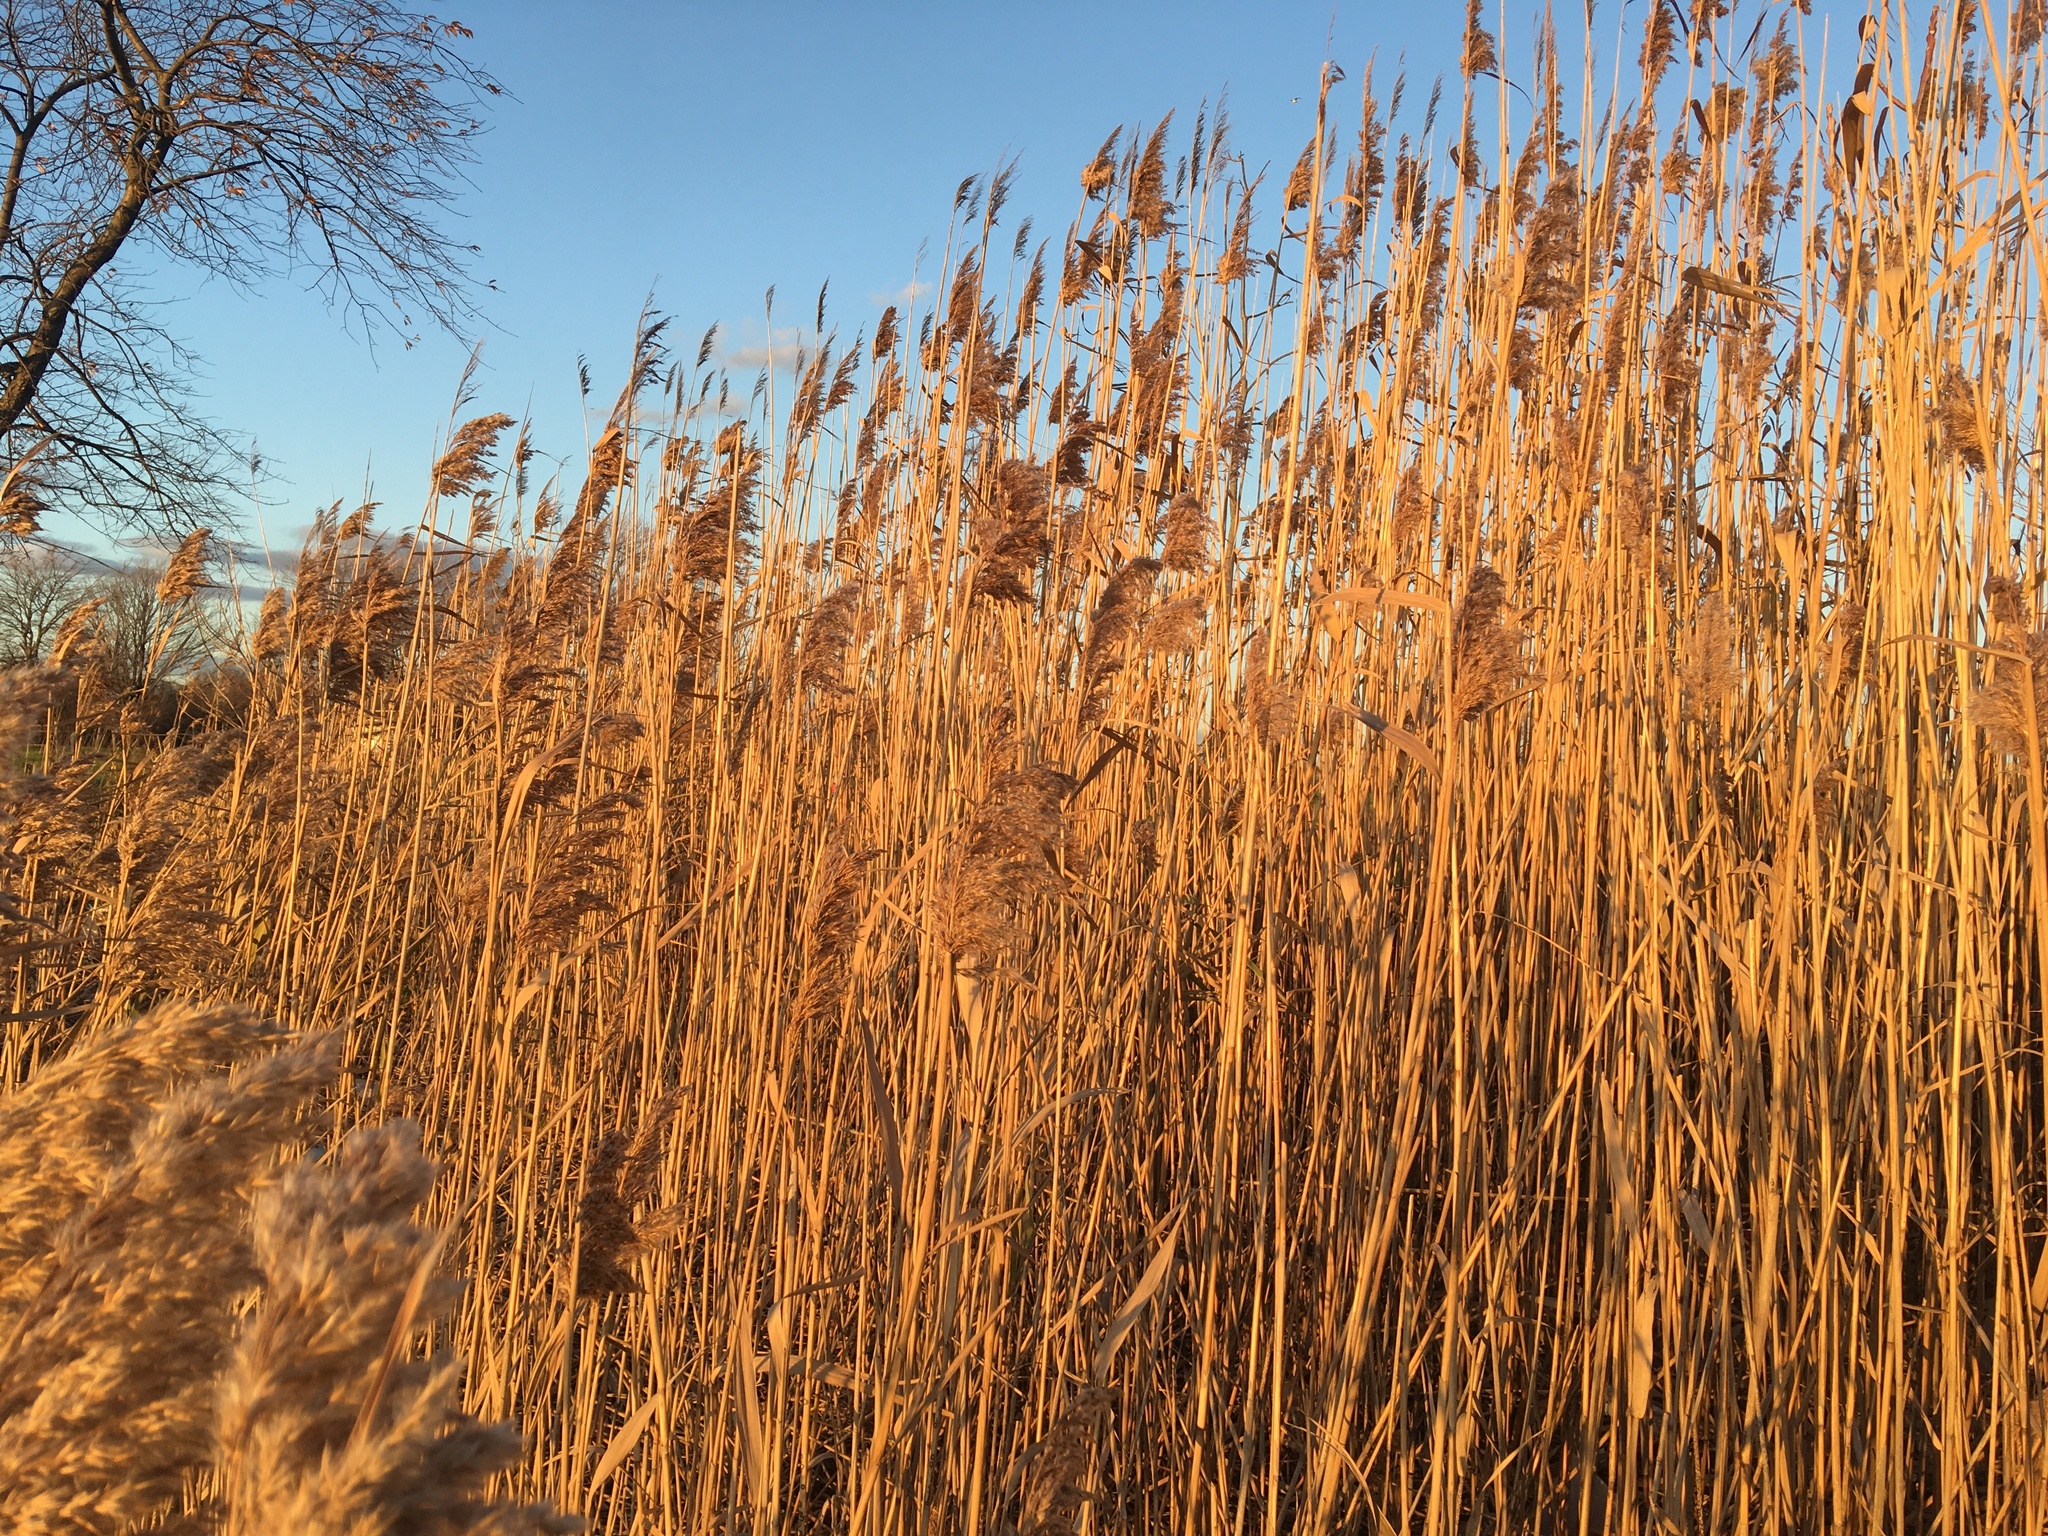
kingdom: Plantae
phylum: Tracheophyta
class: Liliopsida
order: Poales
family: Poaceae
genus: Phragmites
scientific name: Phragmites australis
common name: Common reed
